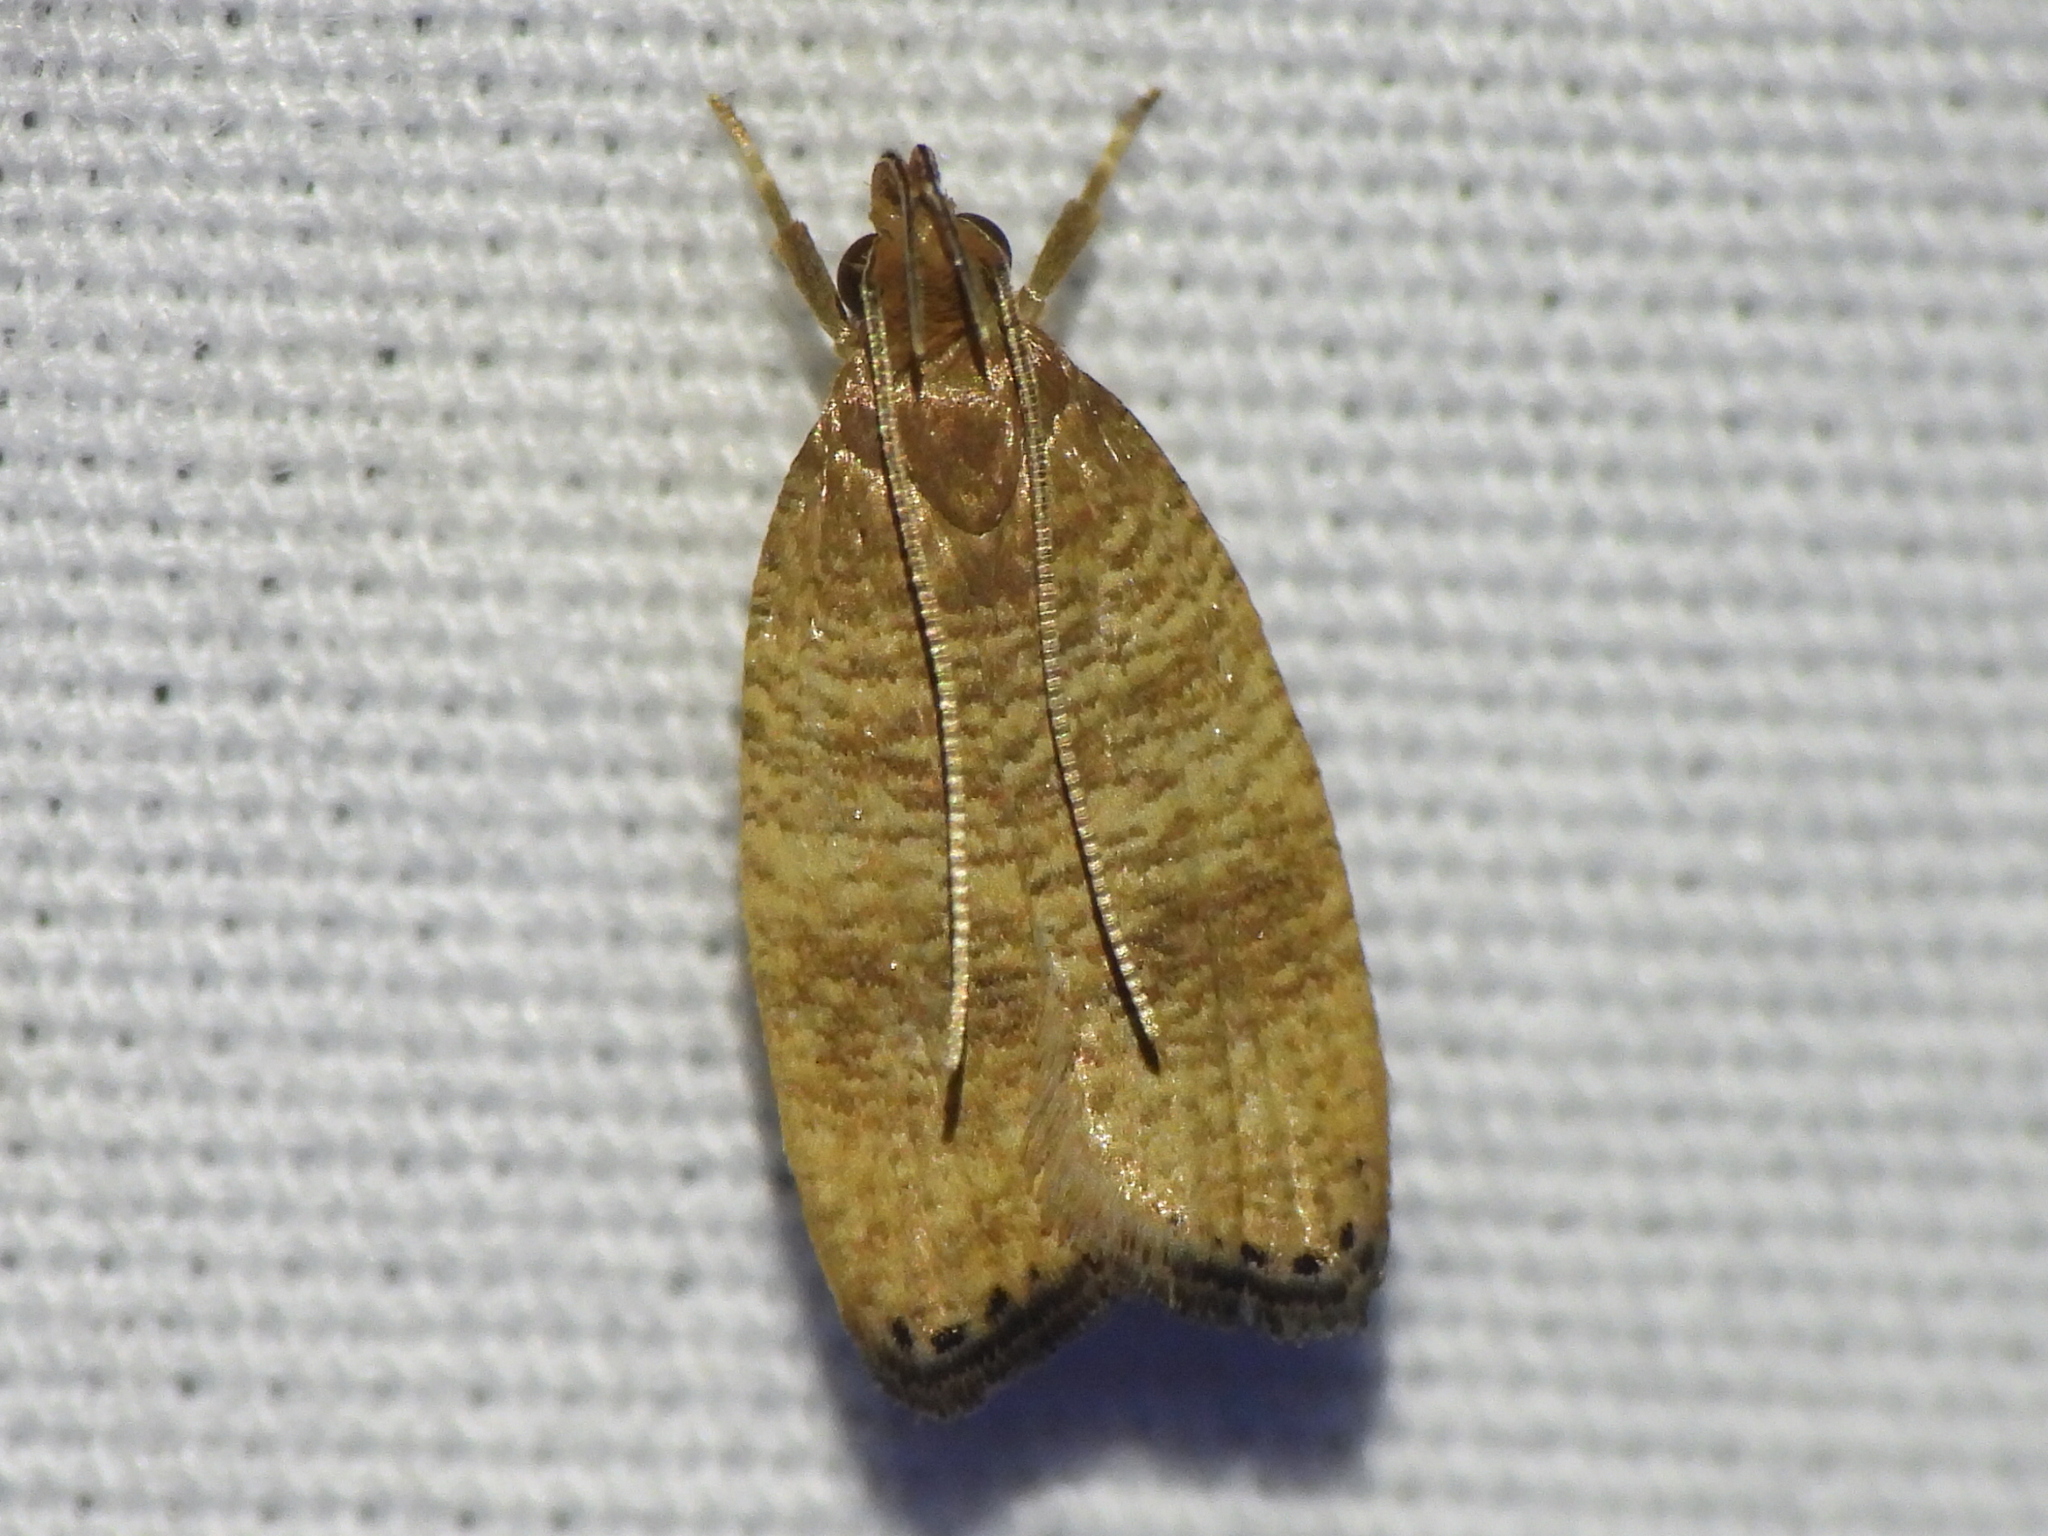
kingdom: Animalia
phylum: Arthropoda
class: Insecta
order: Lepidoptera
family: Depressariidae
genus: Psilocorsis
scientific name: Psilocorsis cryptolechiella
